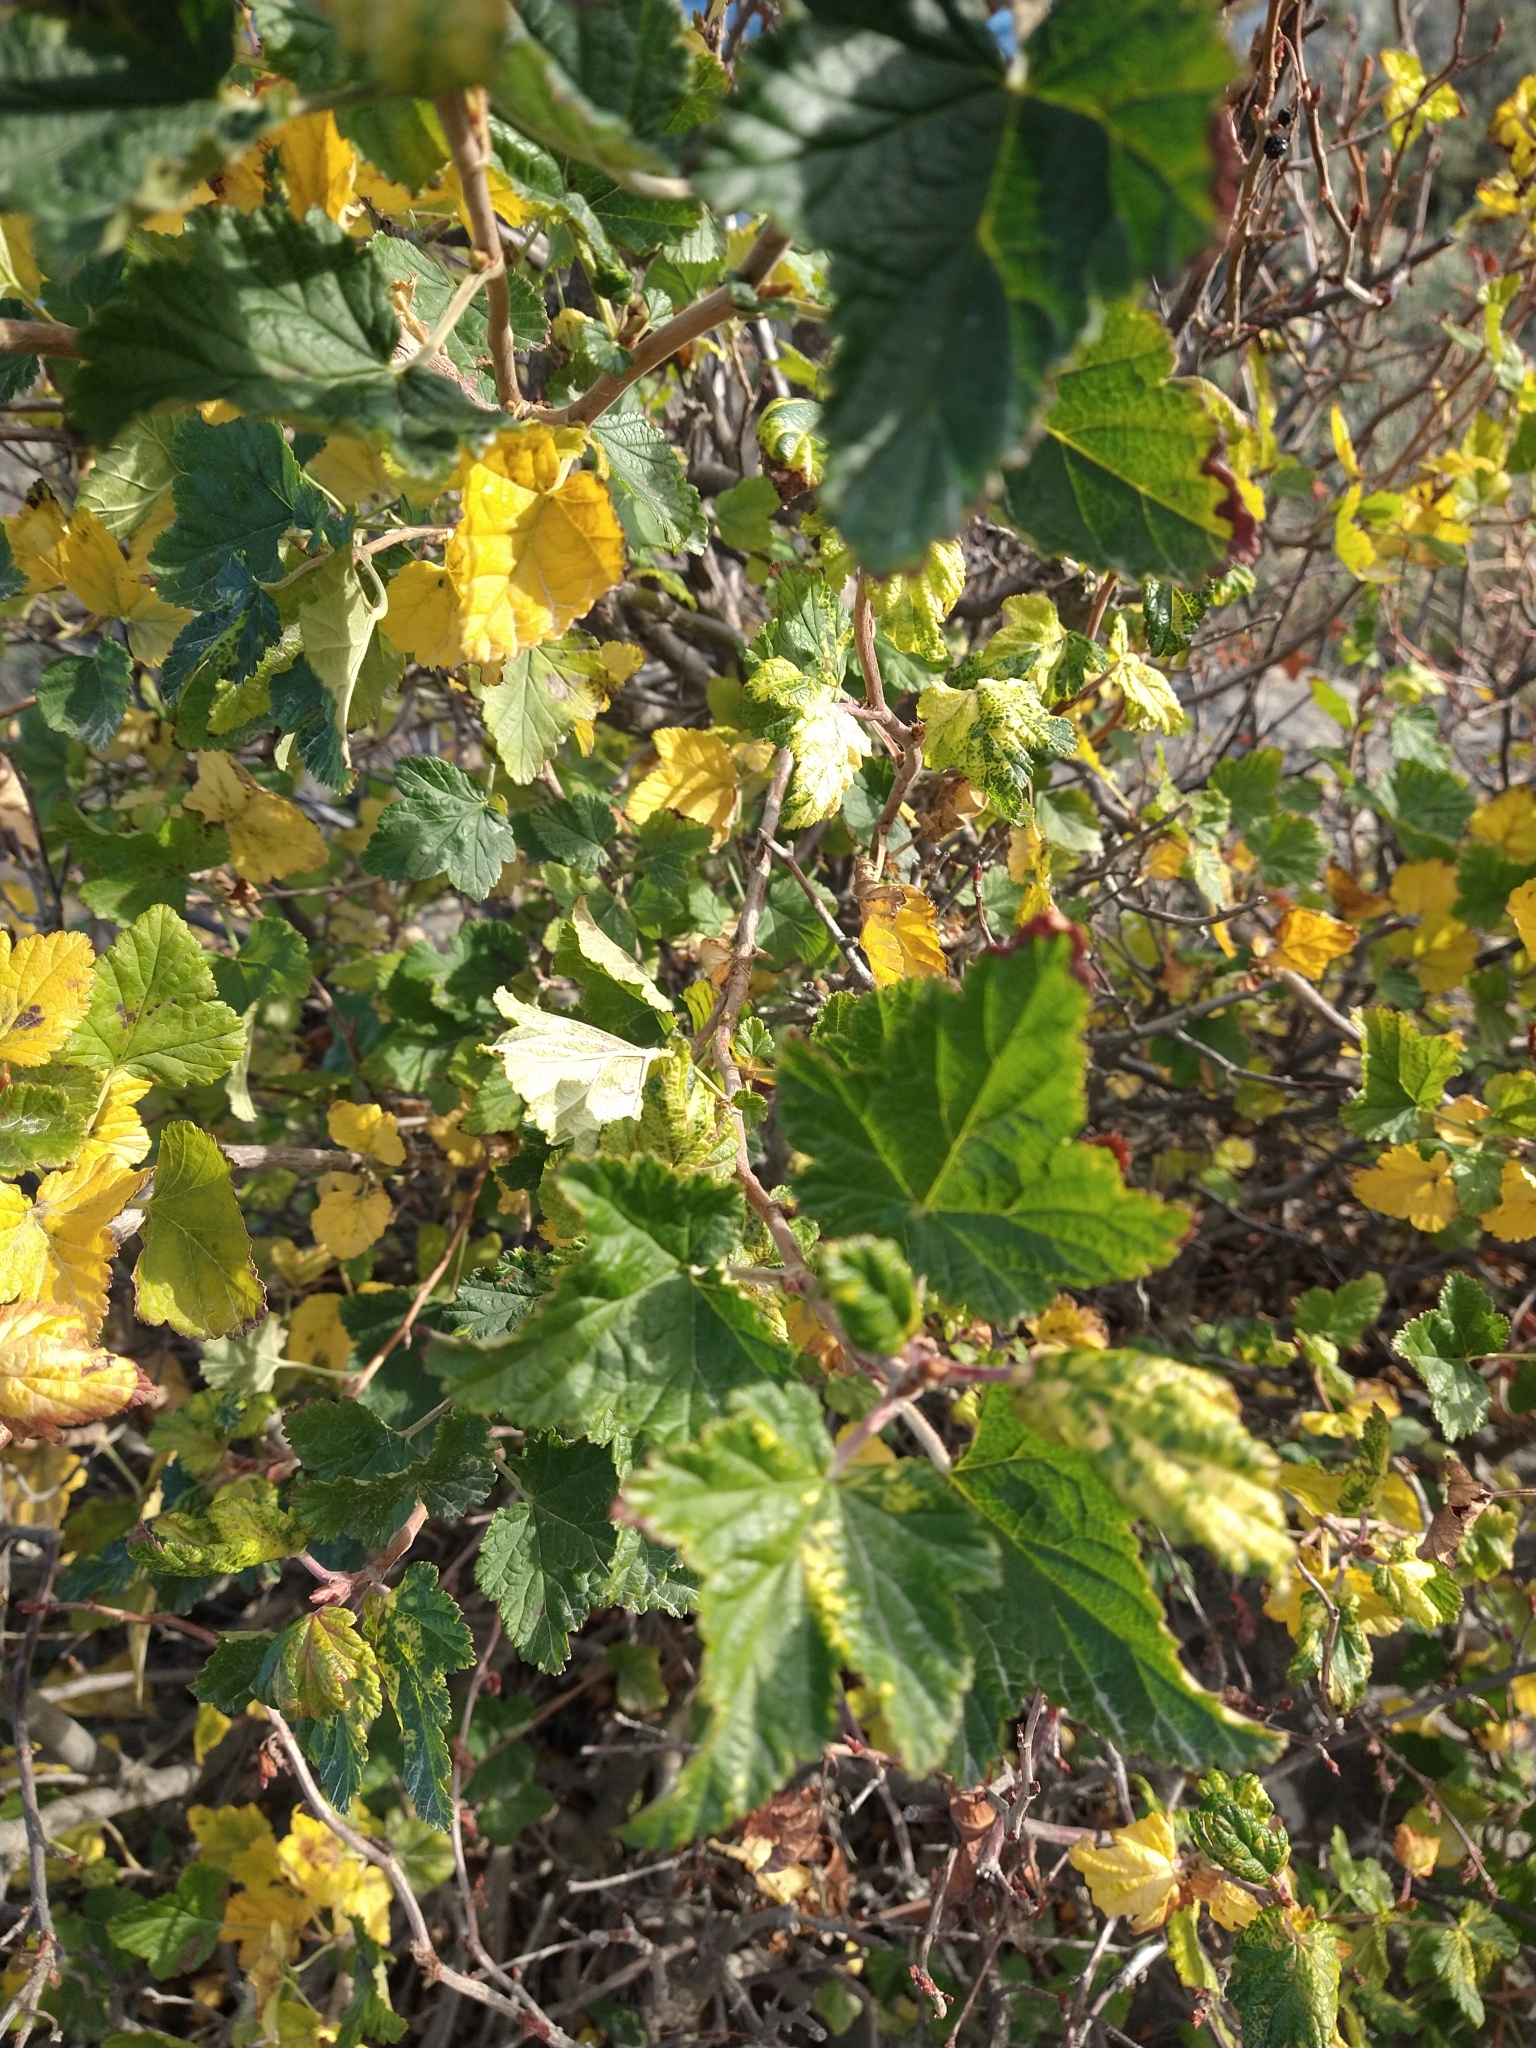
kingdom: Plantae
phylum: Tracheophyta
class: Magnoliopsida
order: Saxifragales
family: Grossulariaceae
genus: Ribes
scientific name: Ribes magellanicum
